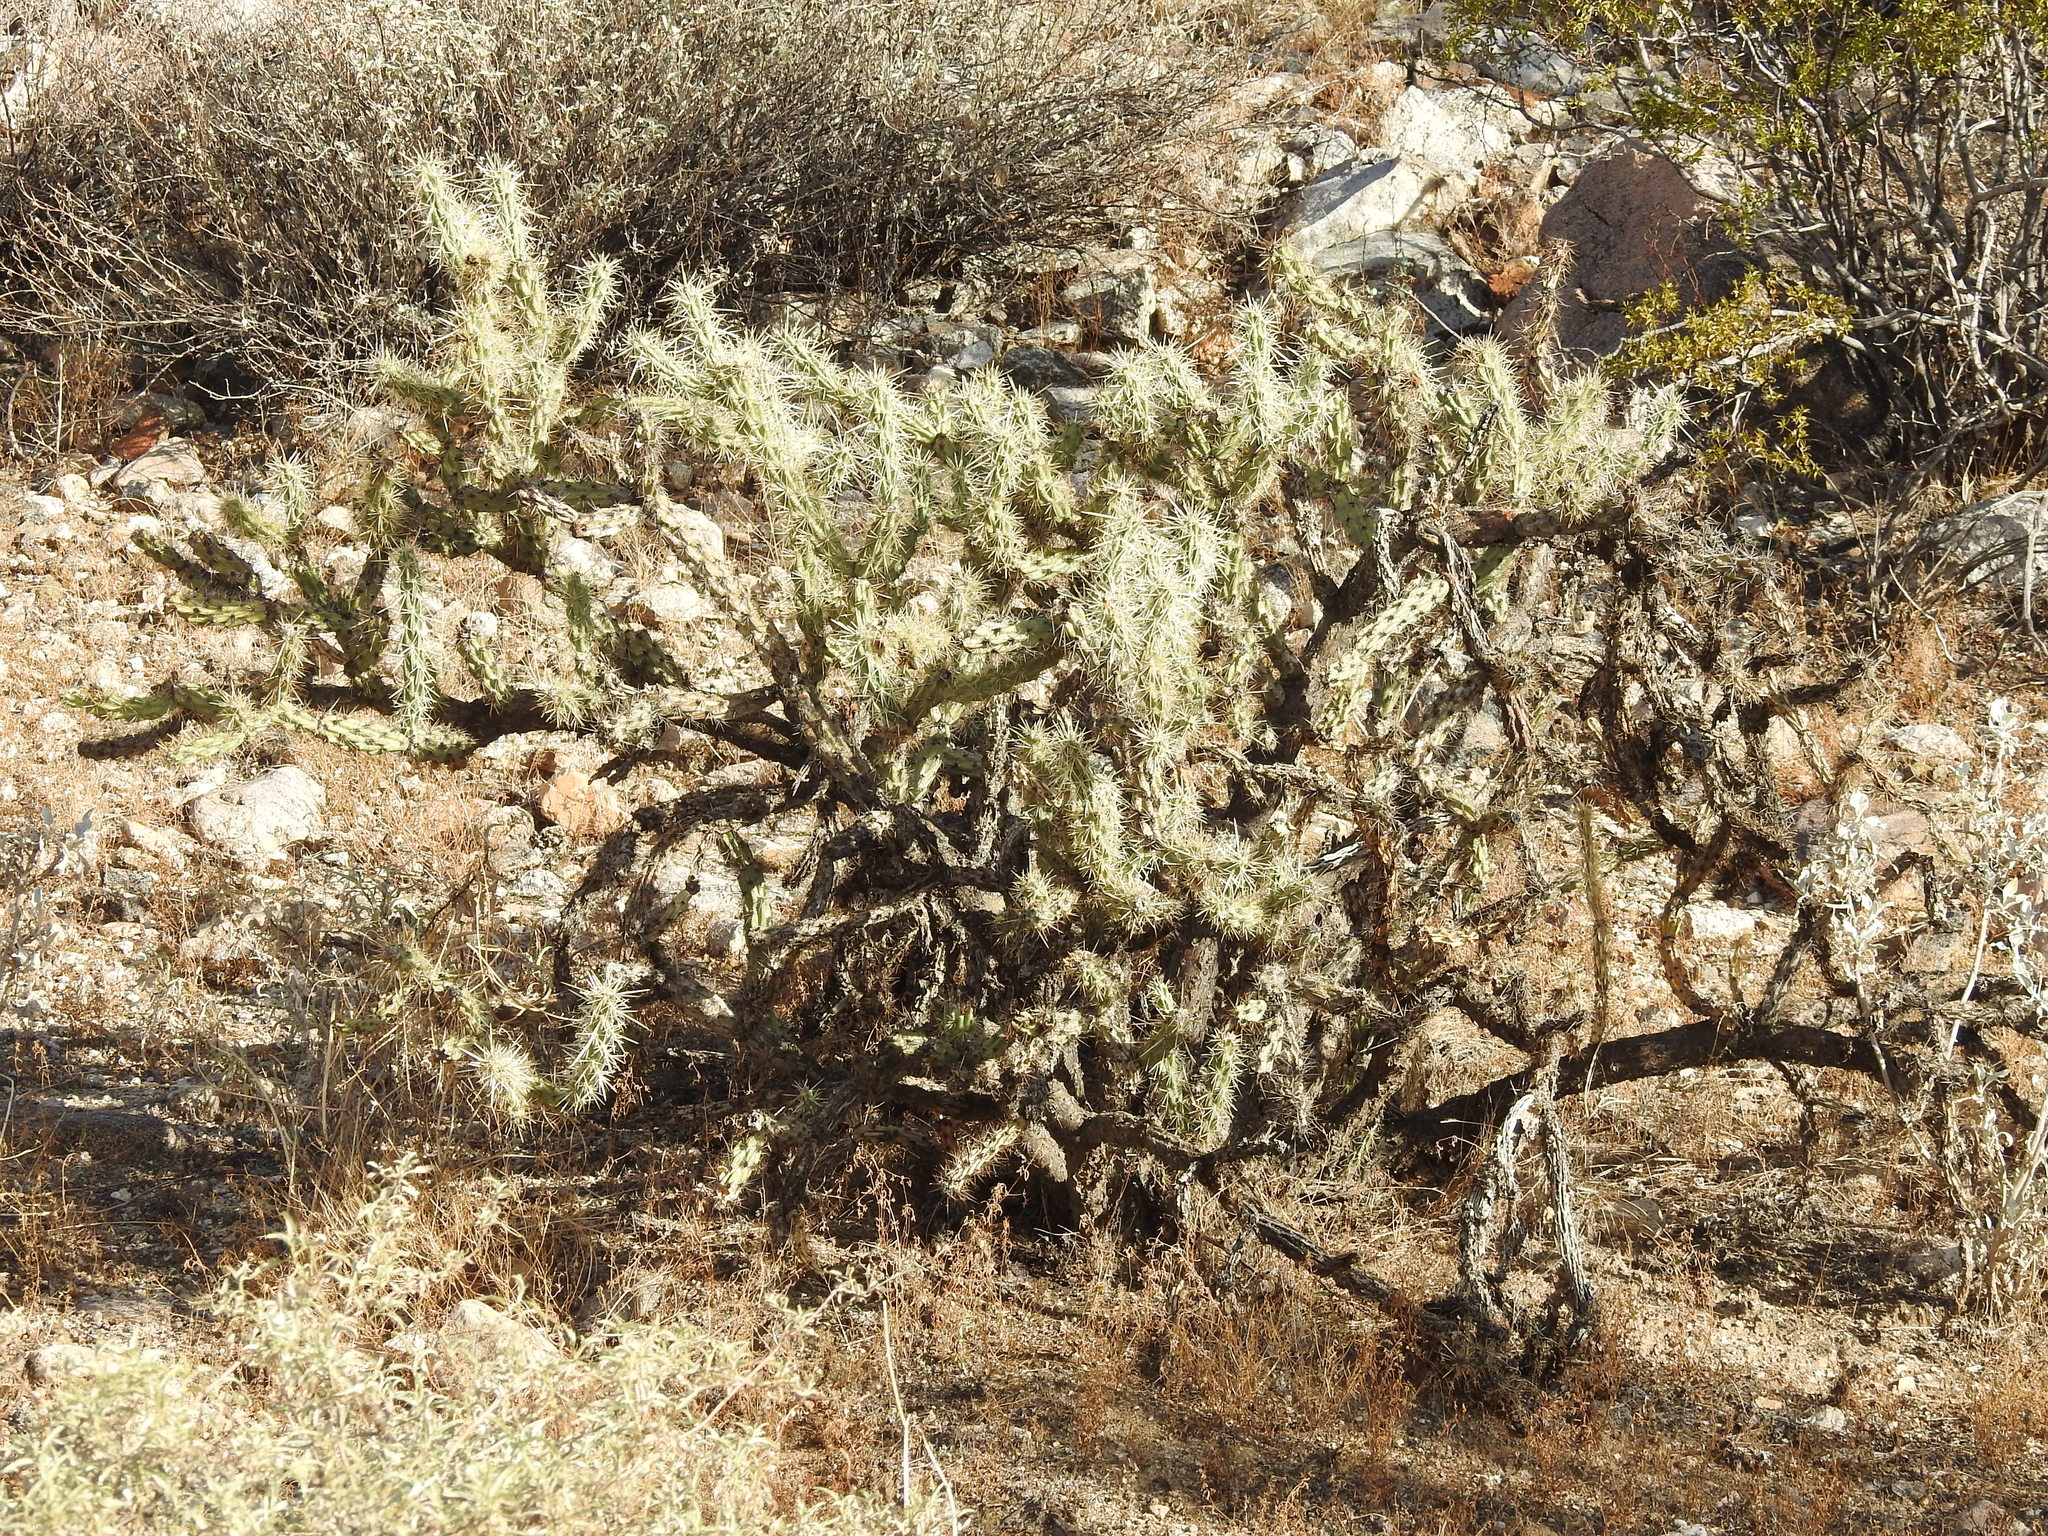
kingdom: Plantae
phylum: Tracheophyta
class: Magnoliopsida
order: Caryophyllales
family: Cactaceae
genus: Cylindropuntia
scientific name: Cylindropuntia acanthocarpa
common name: Buckhorn cholla
